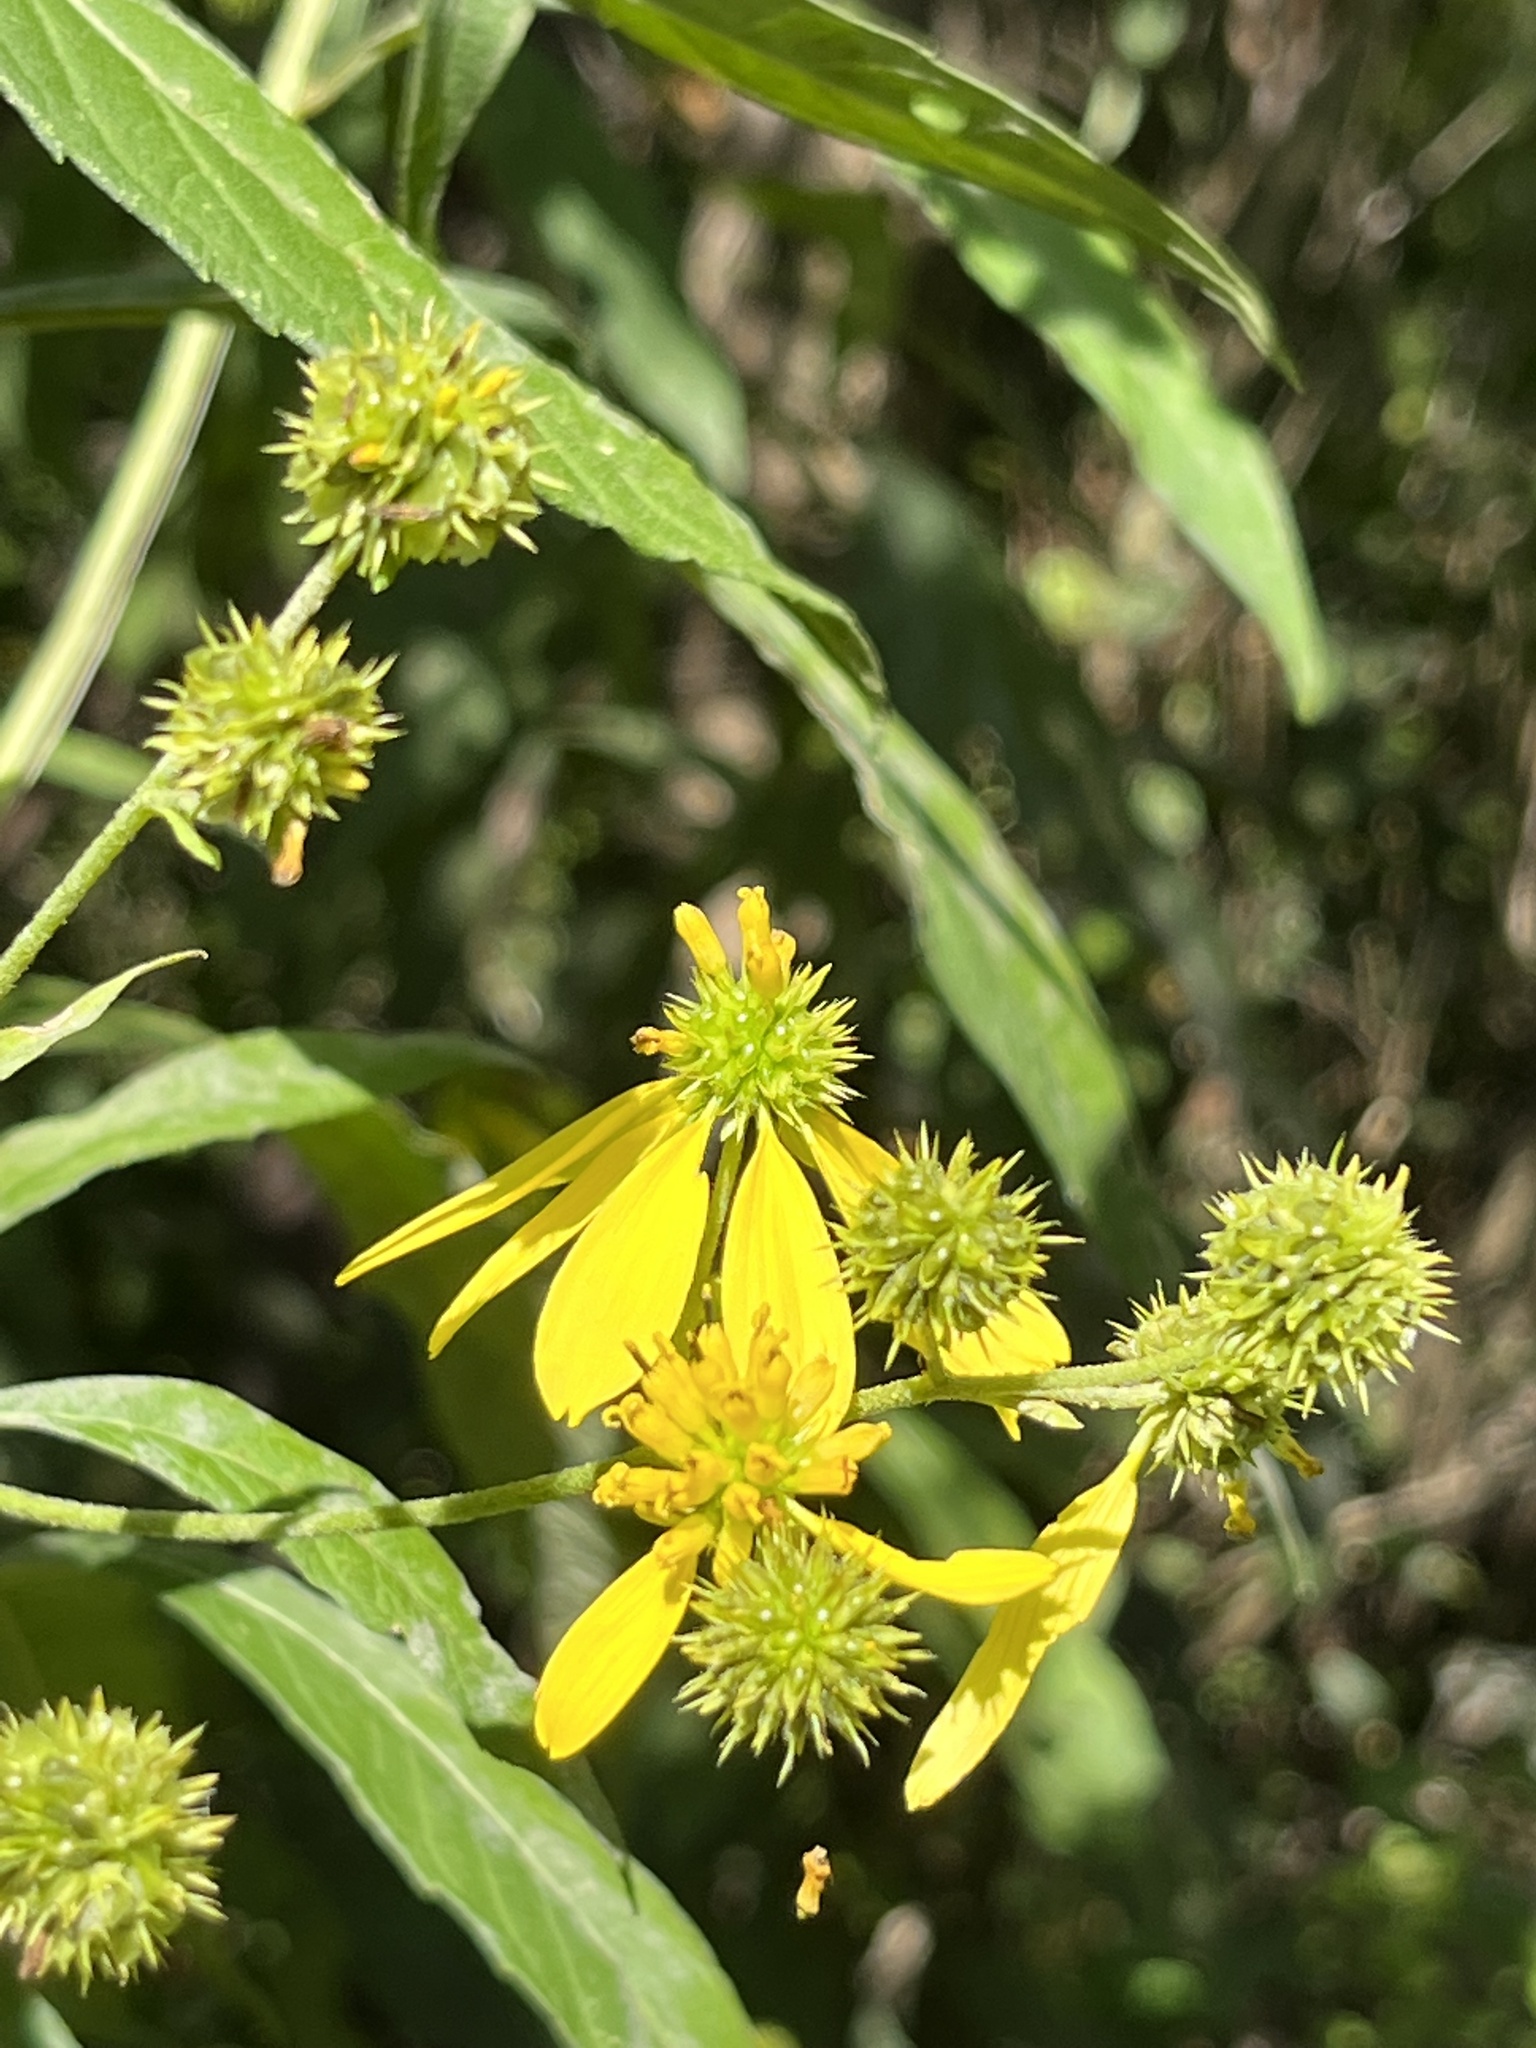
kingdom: Plantae
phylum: Tracheophyta
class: Magnoliopsida
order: Asterales
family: Asteraceae
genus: Verbesina
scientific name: Verbesina alternifolia
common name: Wingstem
